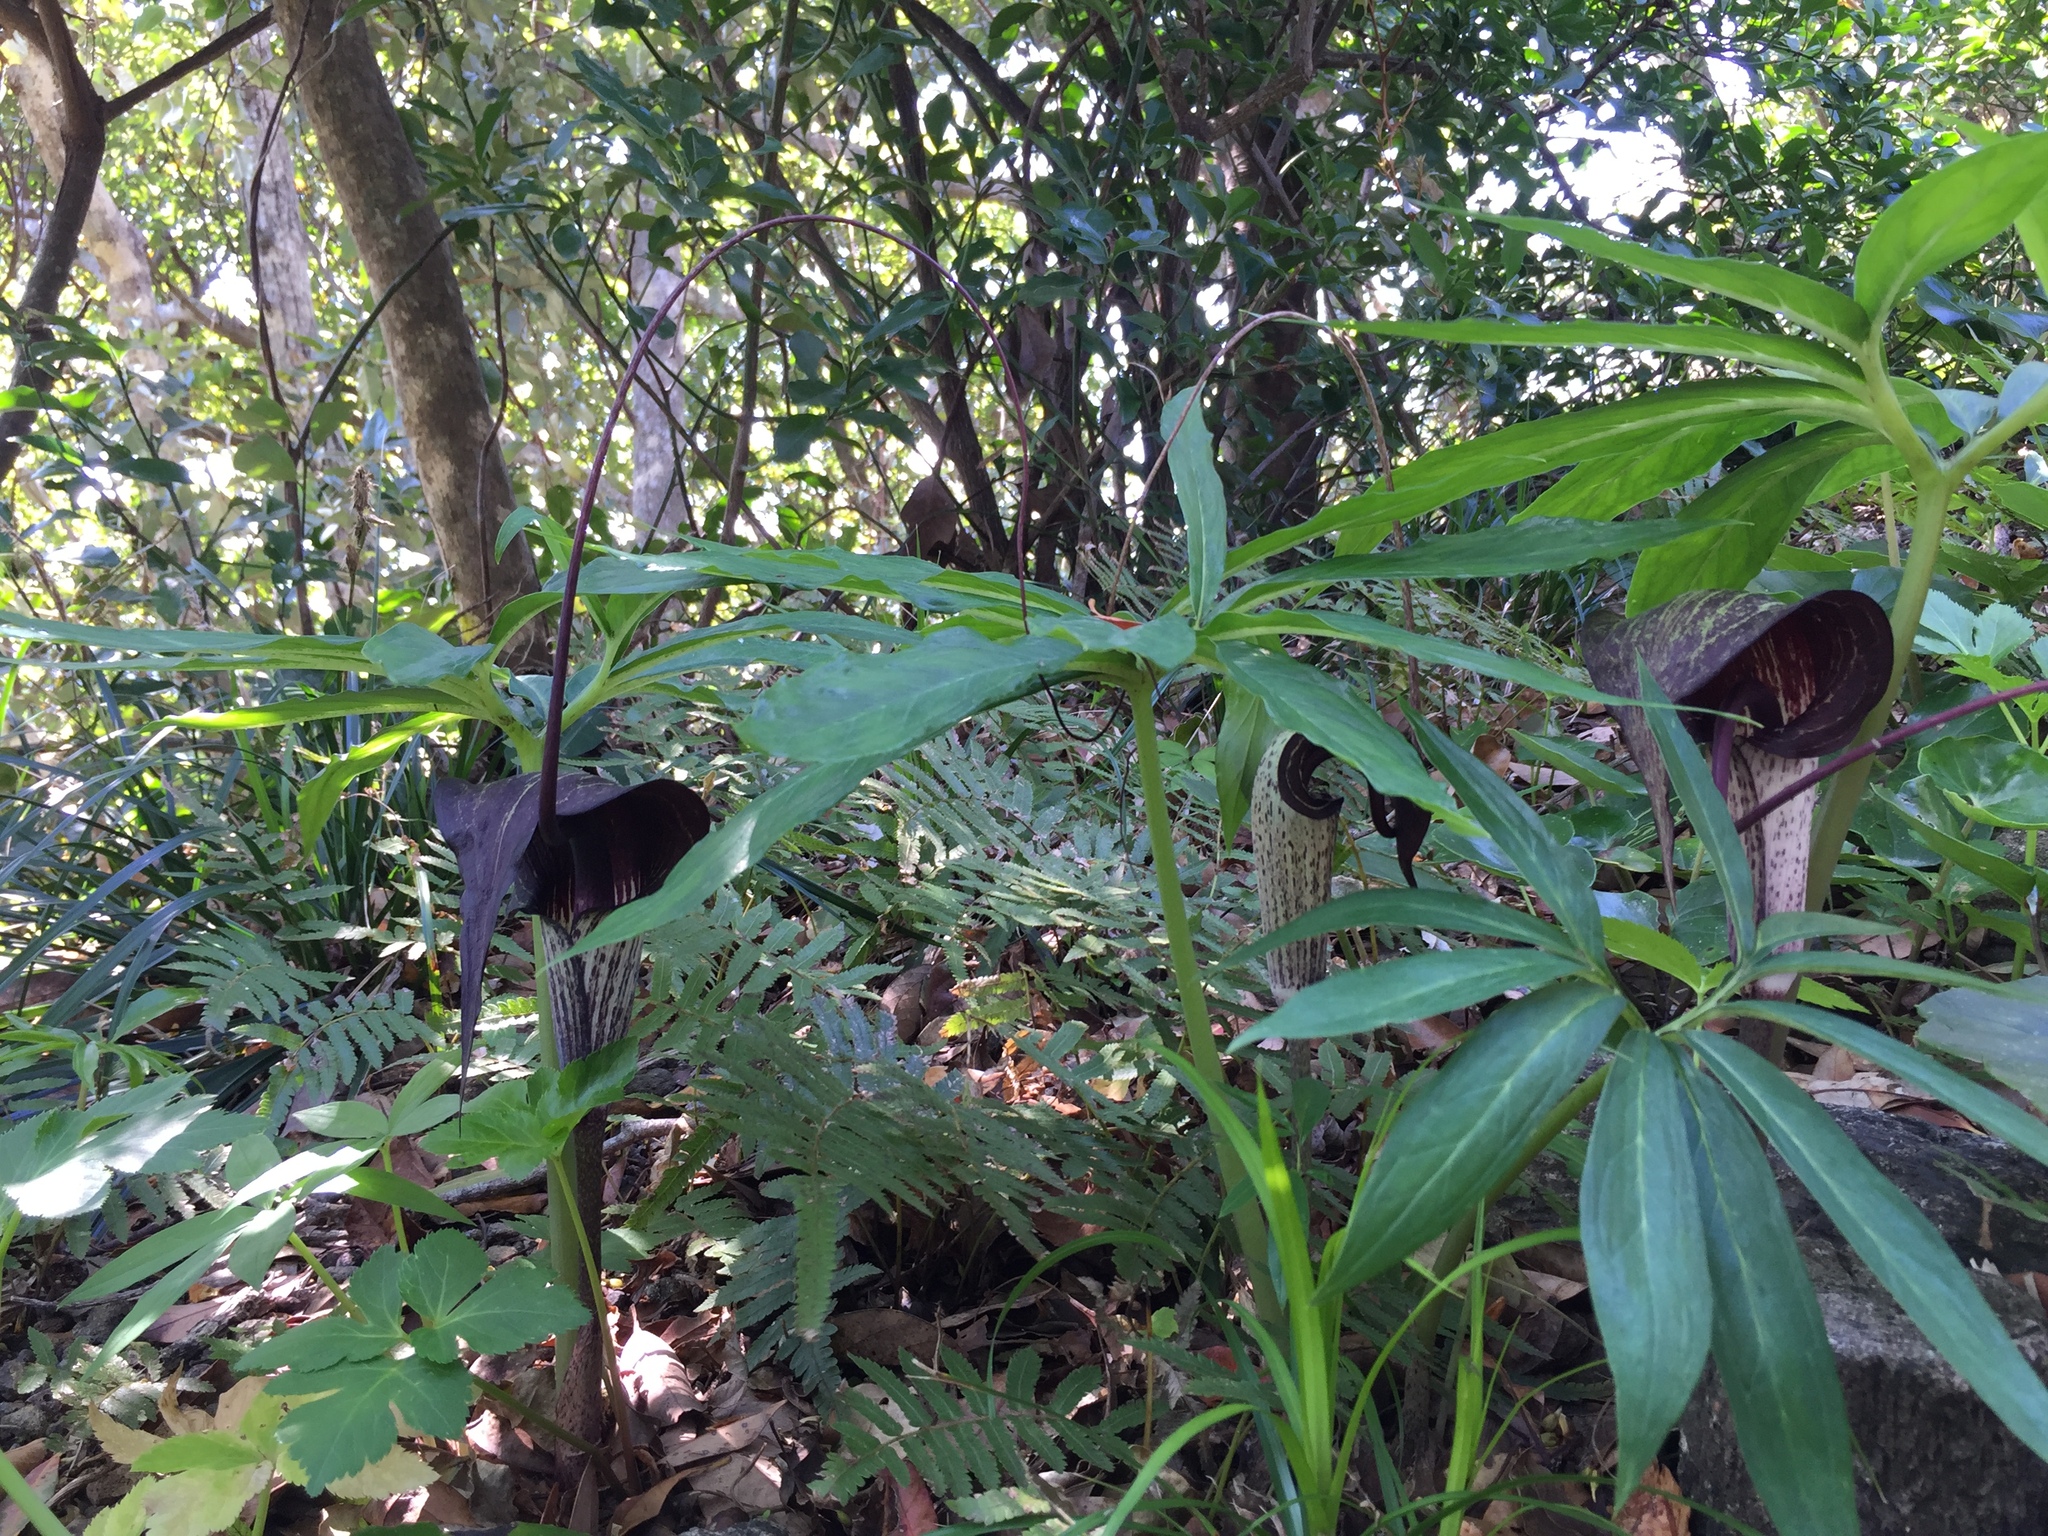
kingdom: Plantae
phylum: Tracheophyta
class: Liliopsida
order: Alismatales
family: Araceae
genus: Arisaema
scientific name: Arisaema thunbergii
